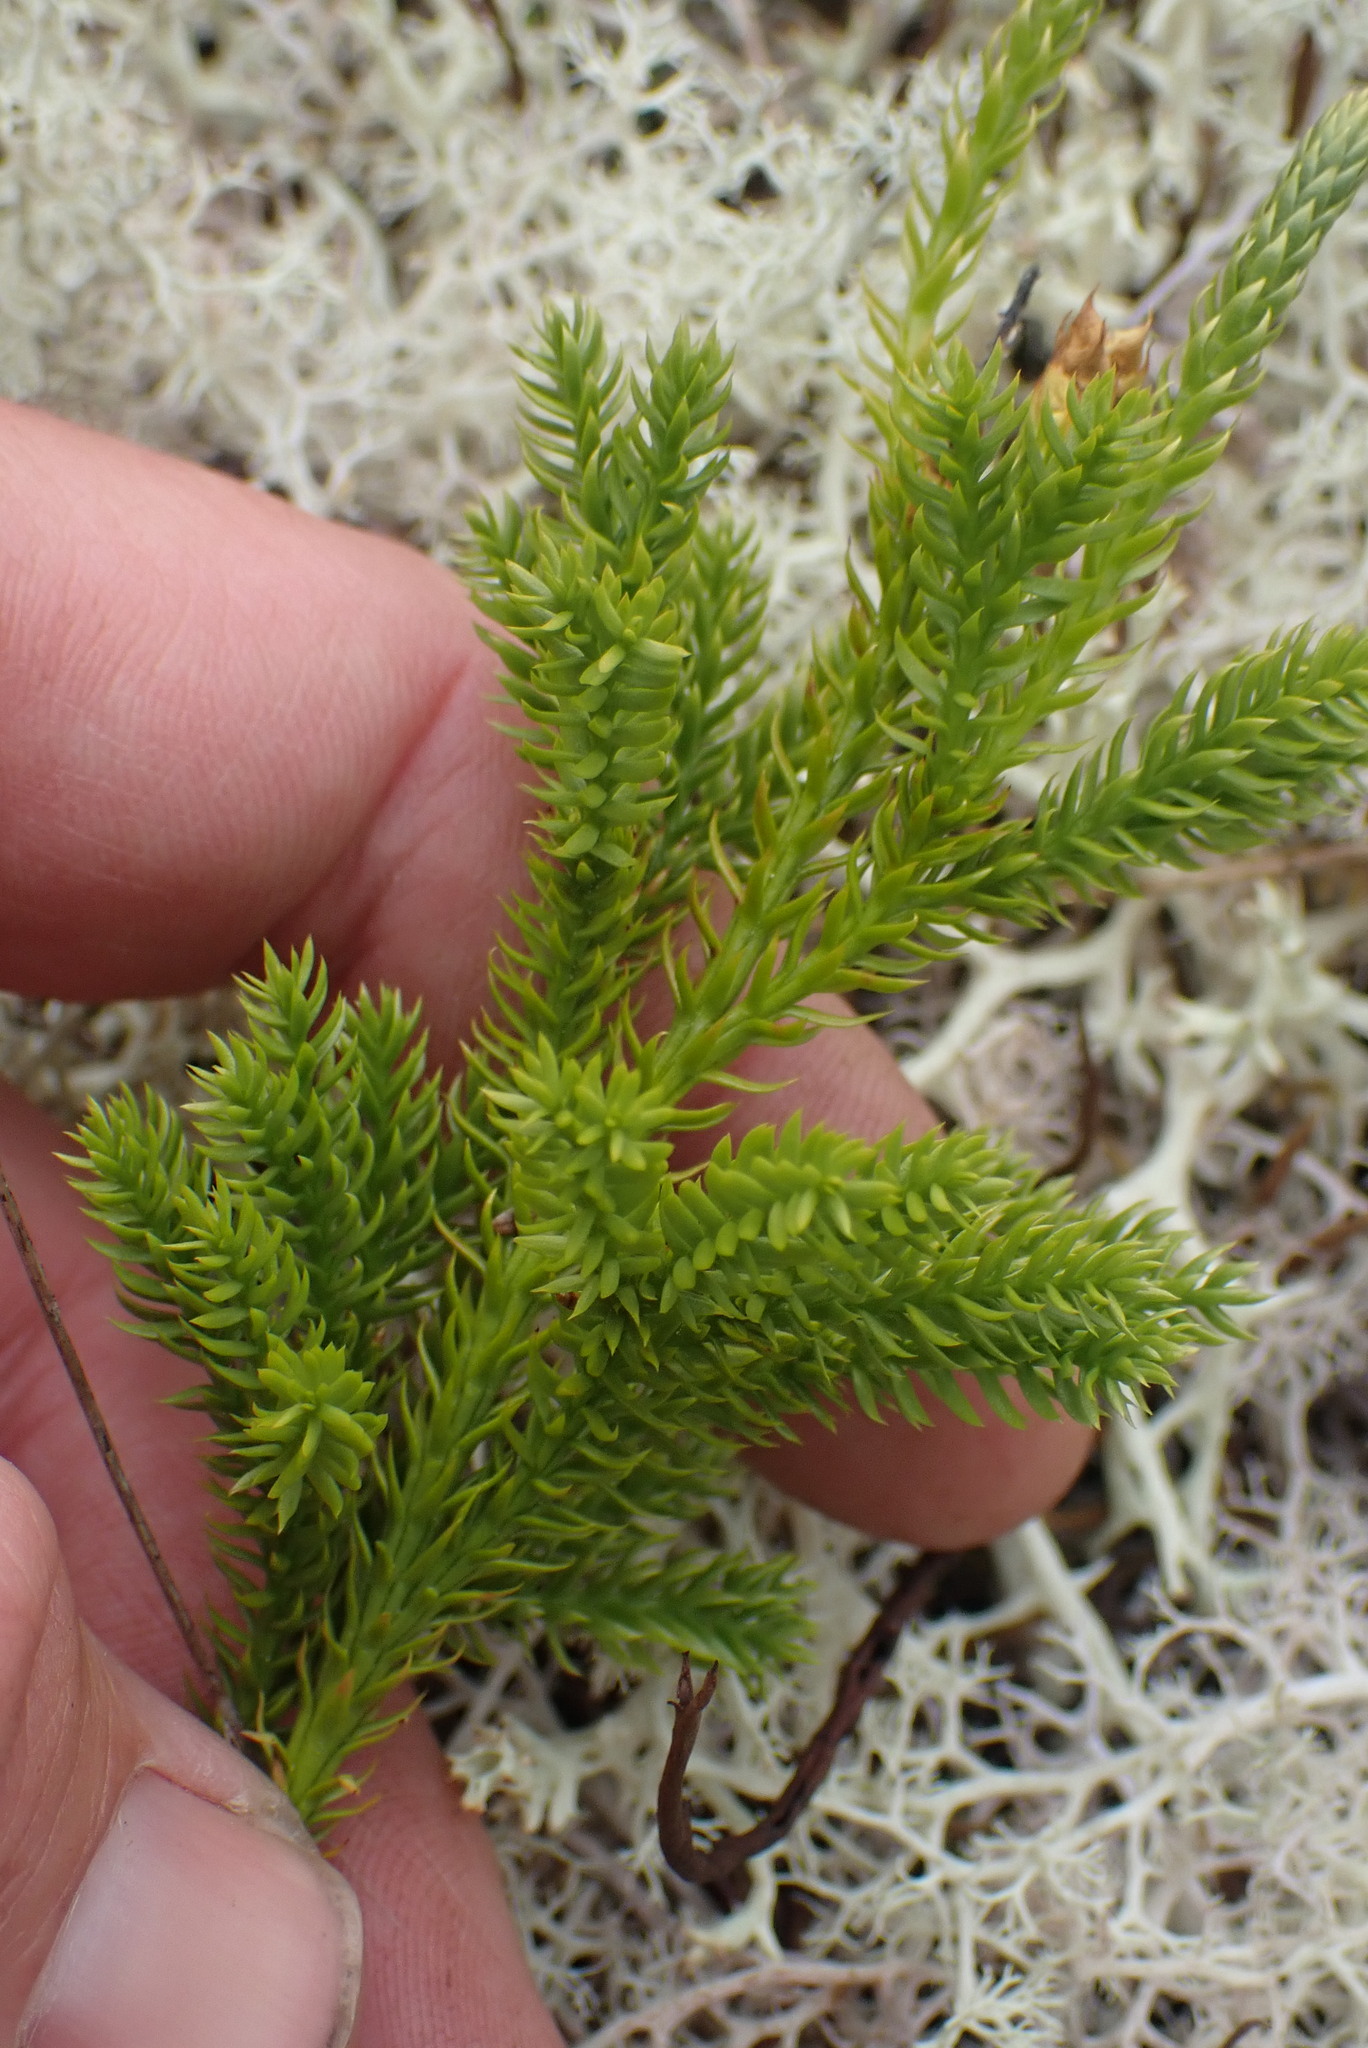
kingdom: Plantae
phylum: Tracheophyta
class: Lycopodiopsida
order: Lycopodiales
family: Lycopodiaceae
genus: Dendrolycopodium
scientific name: Dendrolycopodium dendroideum
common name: Northern tree-clubmoss
